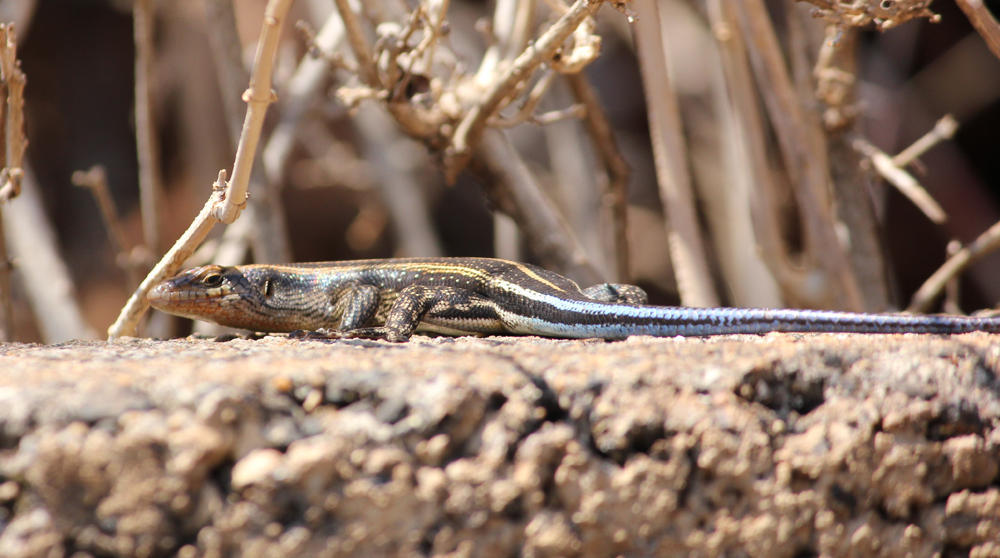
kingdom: Animalia
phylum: Chordata
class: Squamata
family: Scincidae
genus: Trachylepis
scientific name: Trachylepis margaritifera
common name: Rainbow skink
